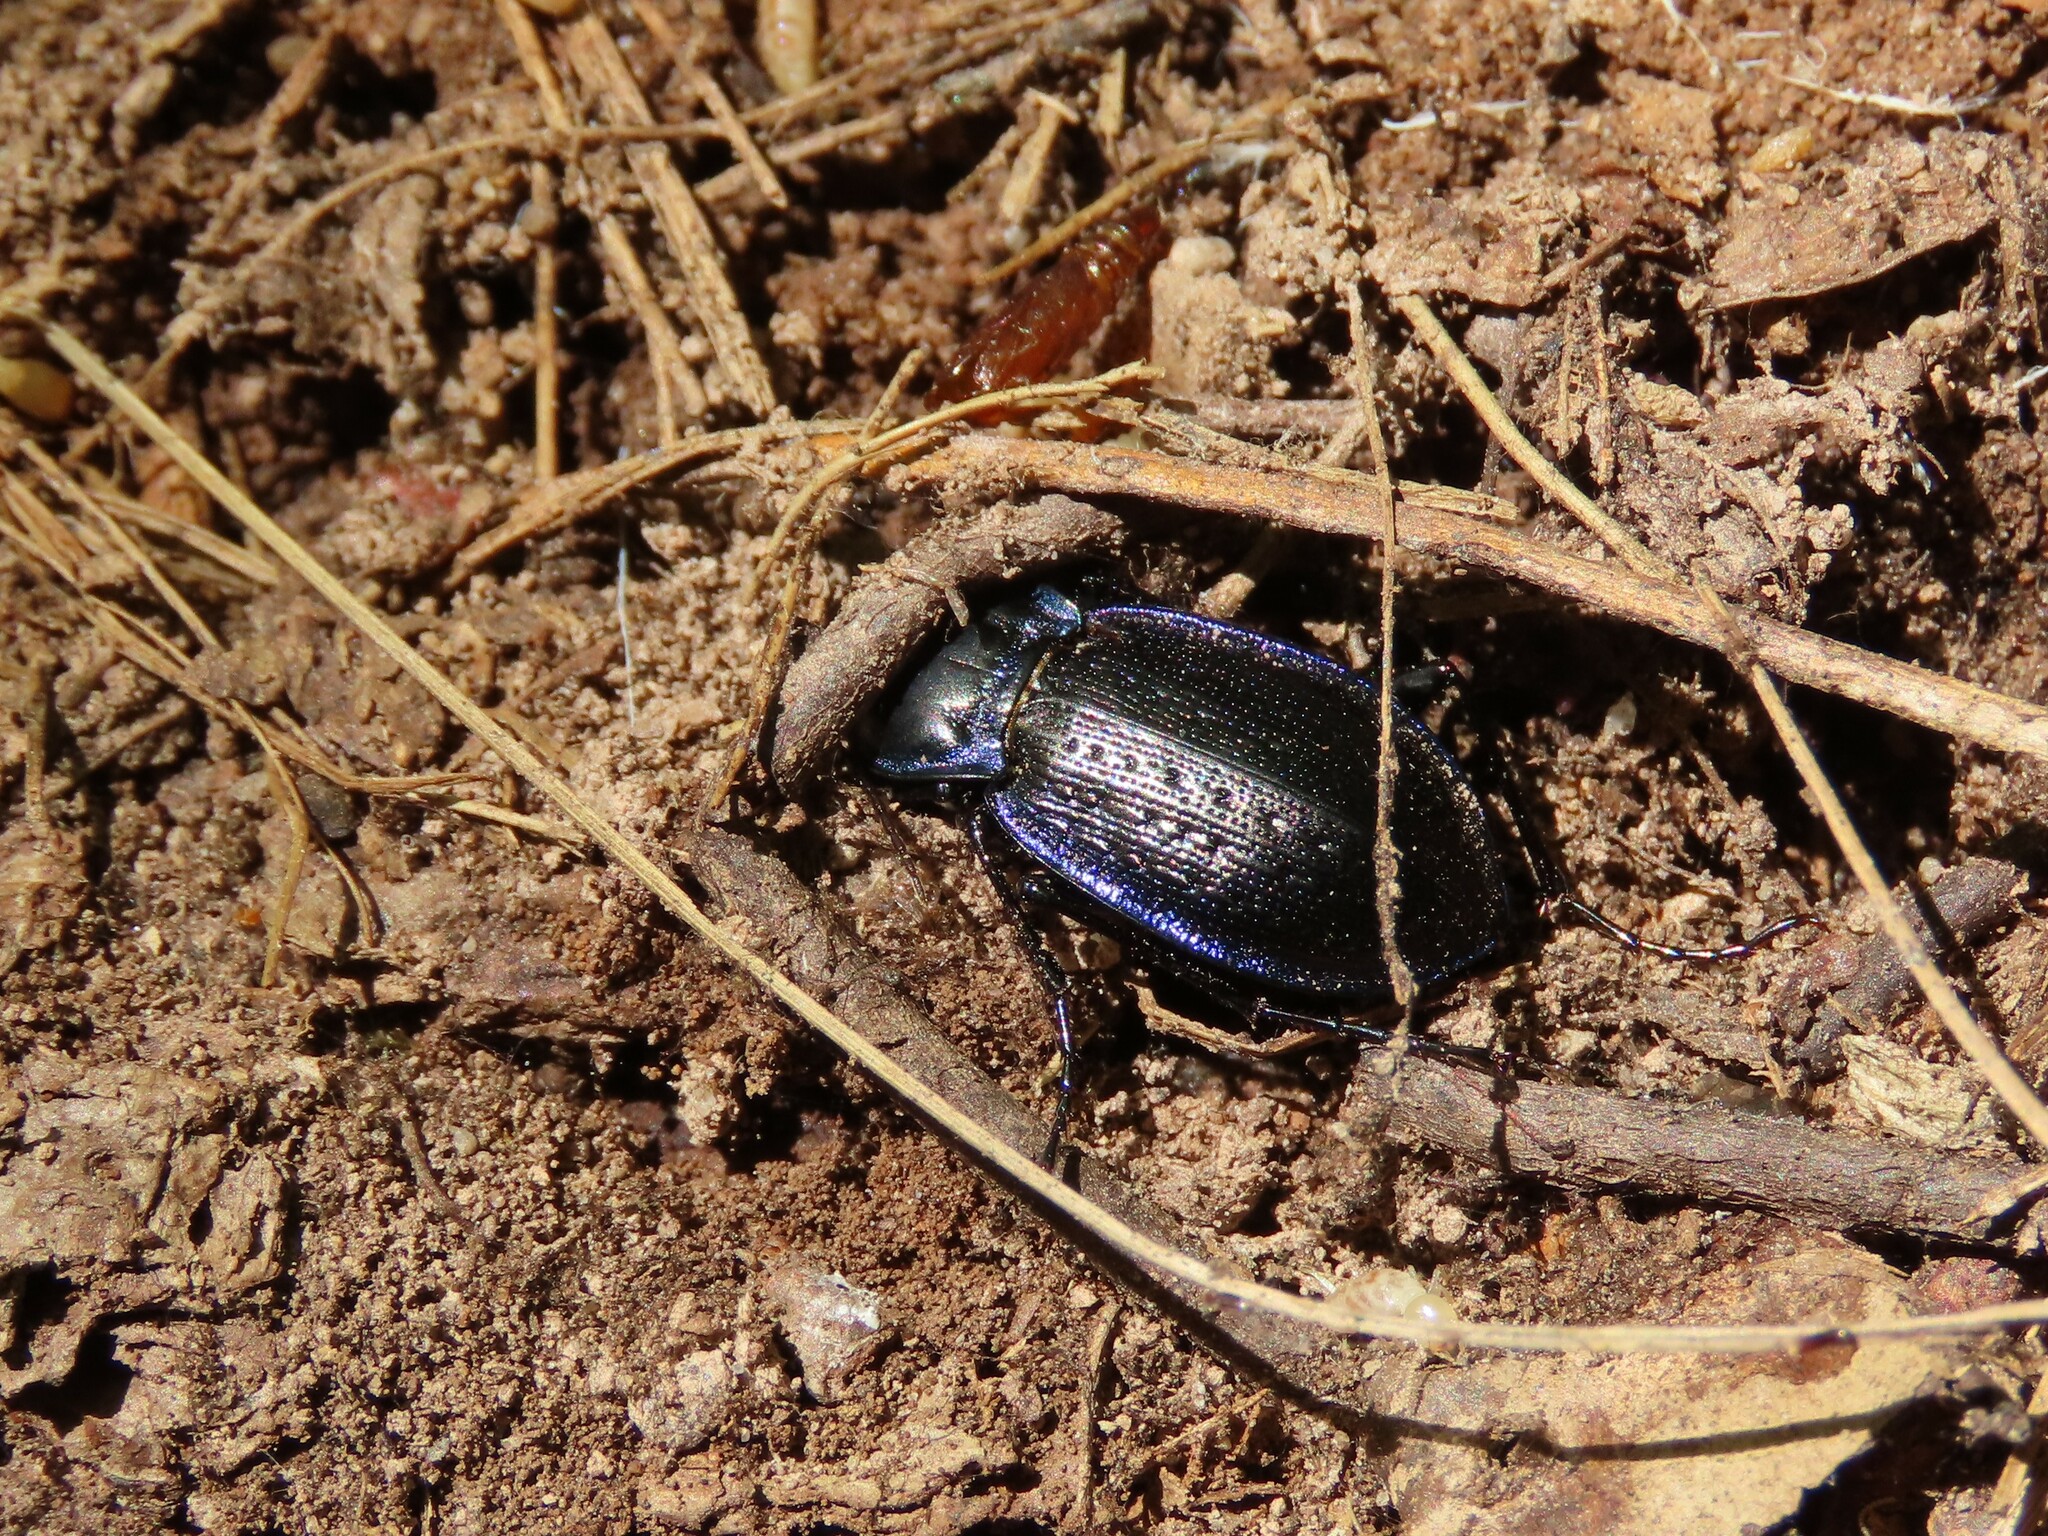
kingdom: Animalia
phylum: Arthropoda
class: Insecta
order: Coleoptera
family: Carabidae
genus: Carabus
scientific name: Carabus serratus
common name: Serrate-shoulder worm and slug hunter
